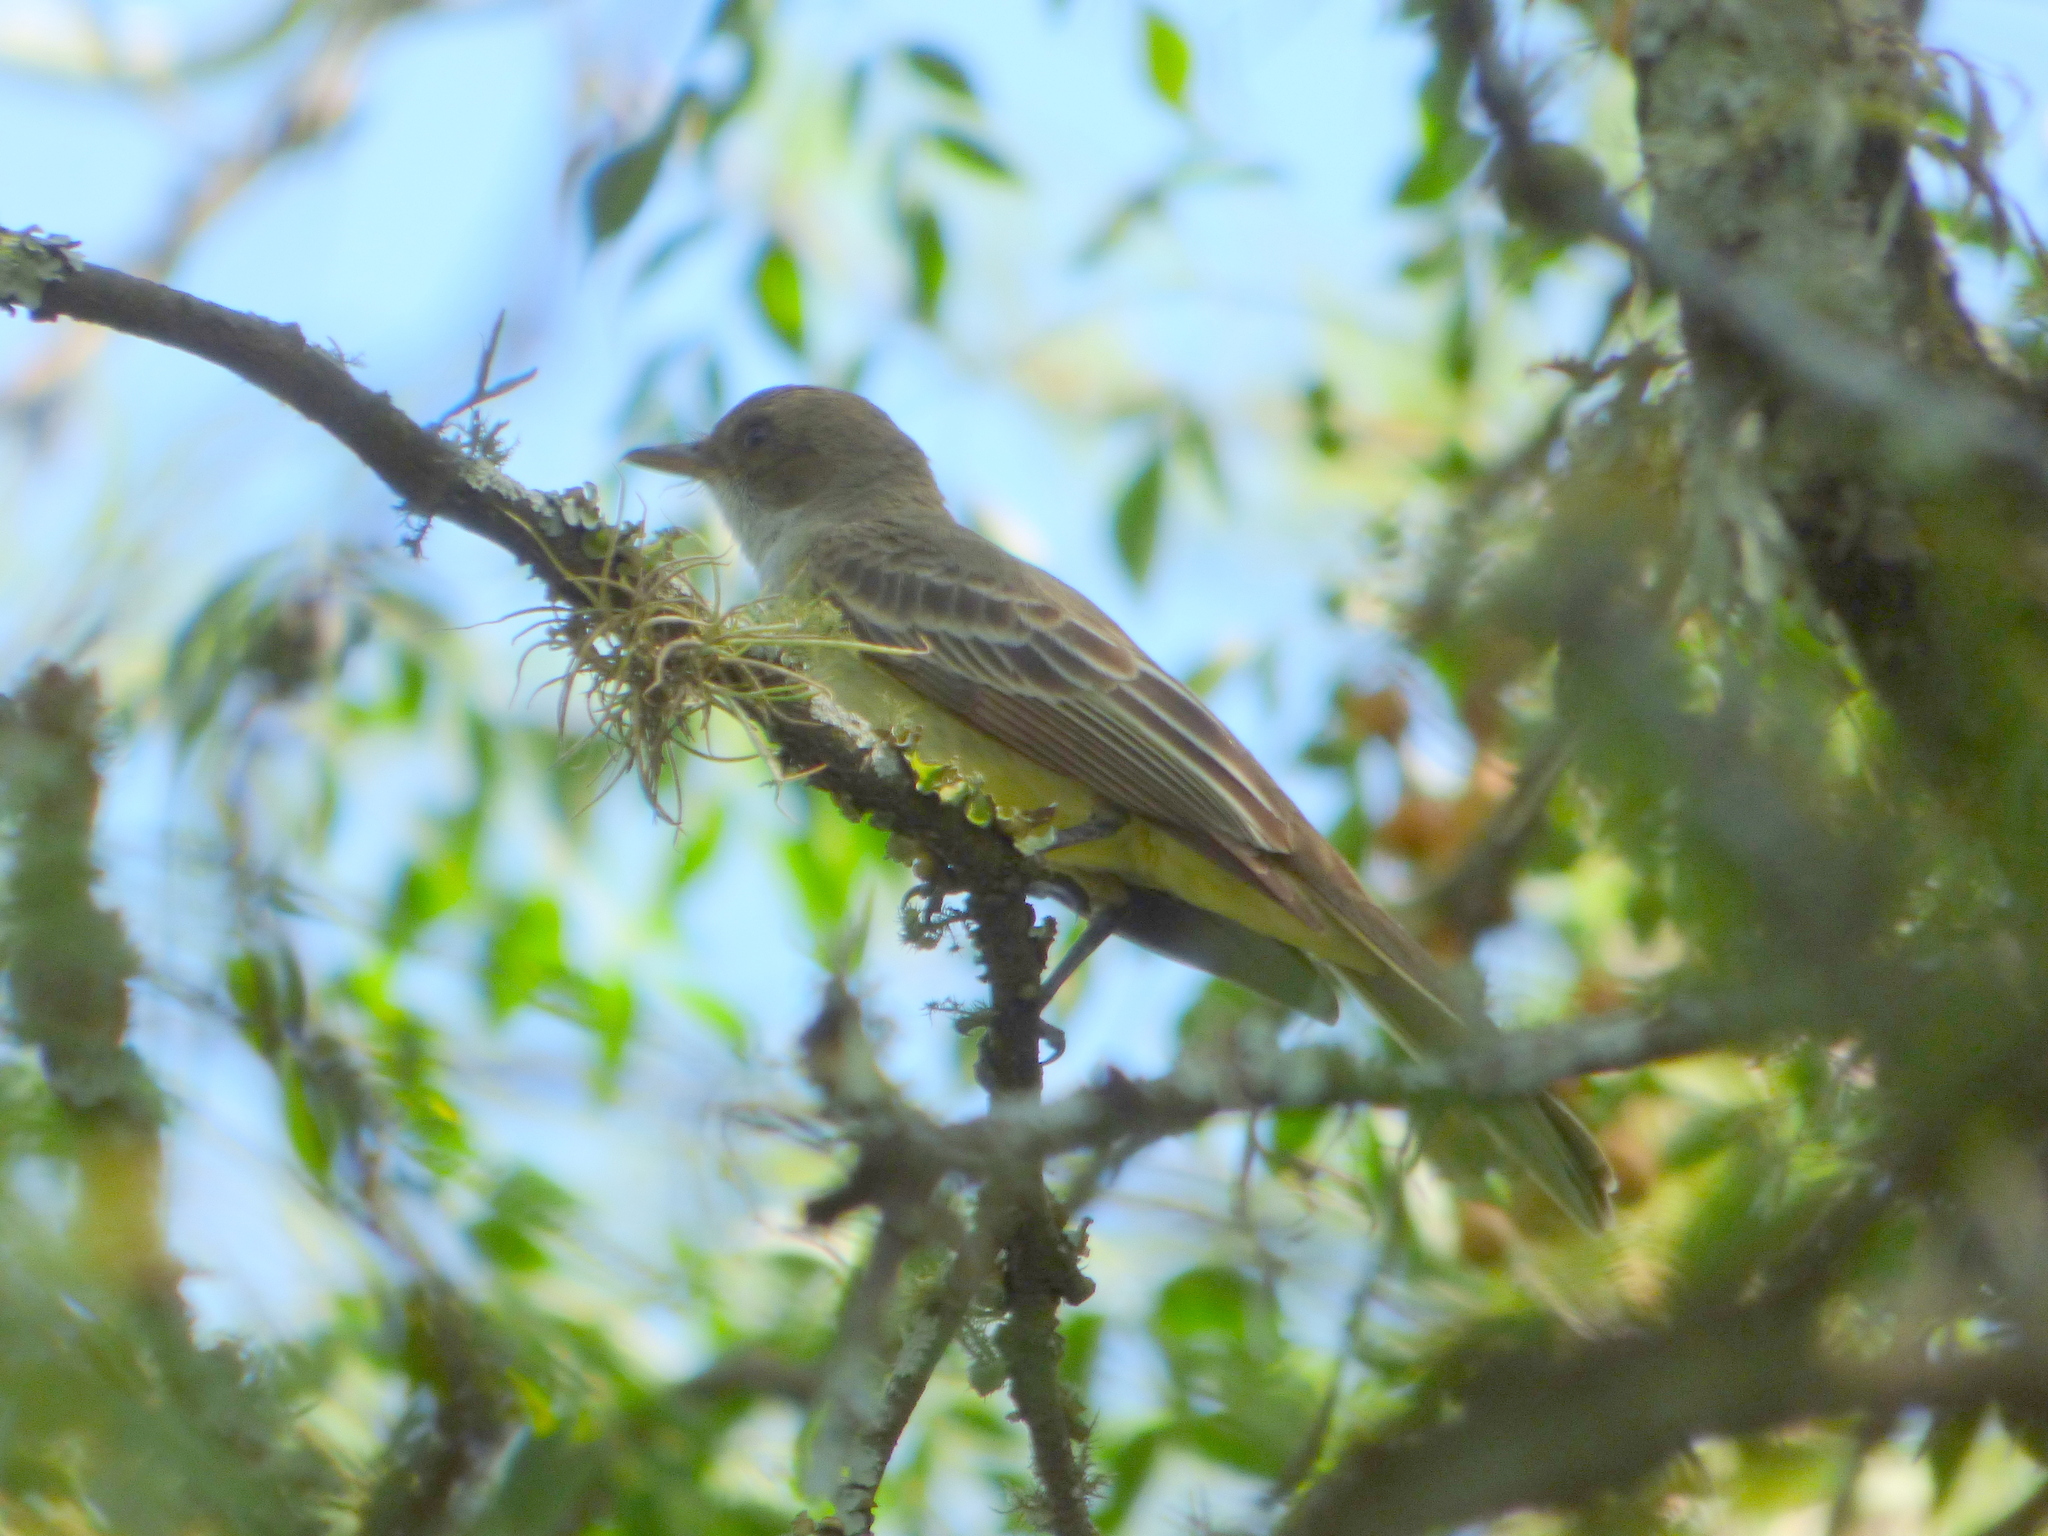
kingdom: Animalia
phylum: Chordata
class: Aves
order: Passeriformes
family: Tyrannidae
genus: Myiarchus
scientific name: Myiarchus swainsoni
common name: Swainson's flycatcher
